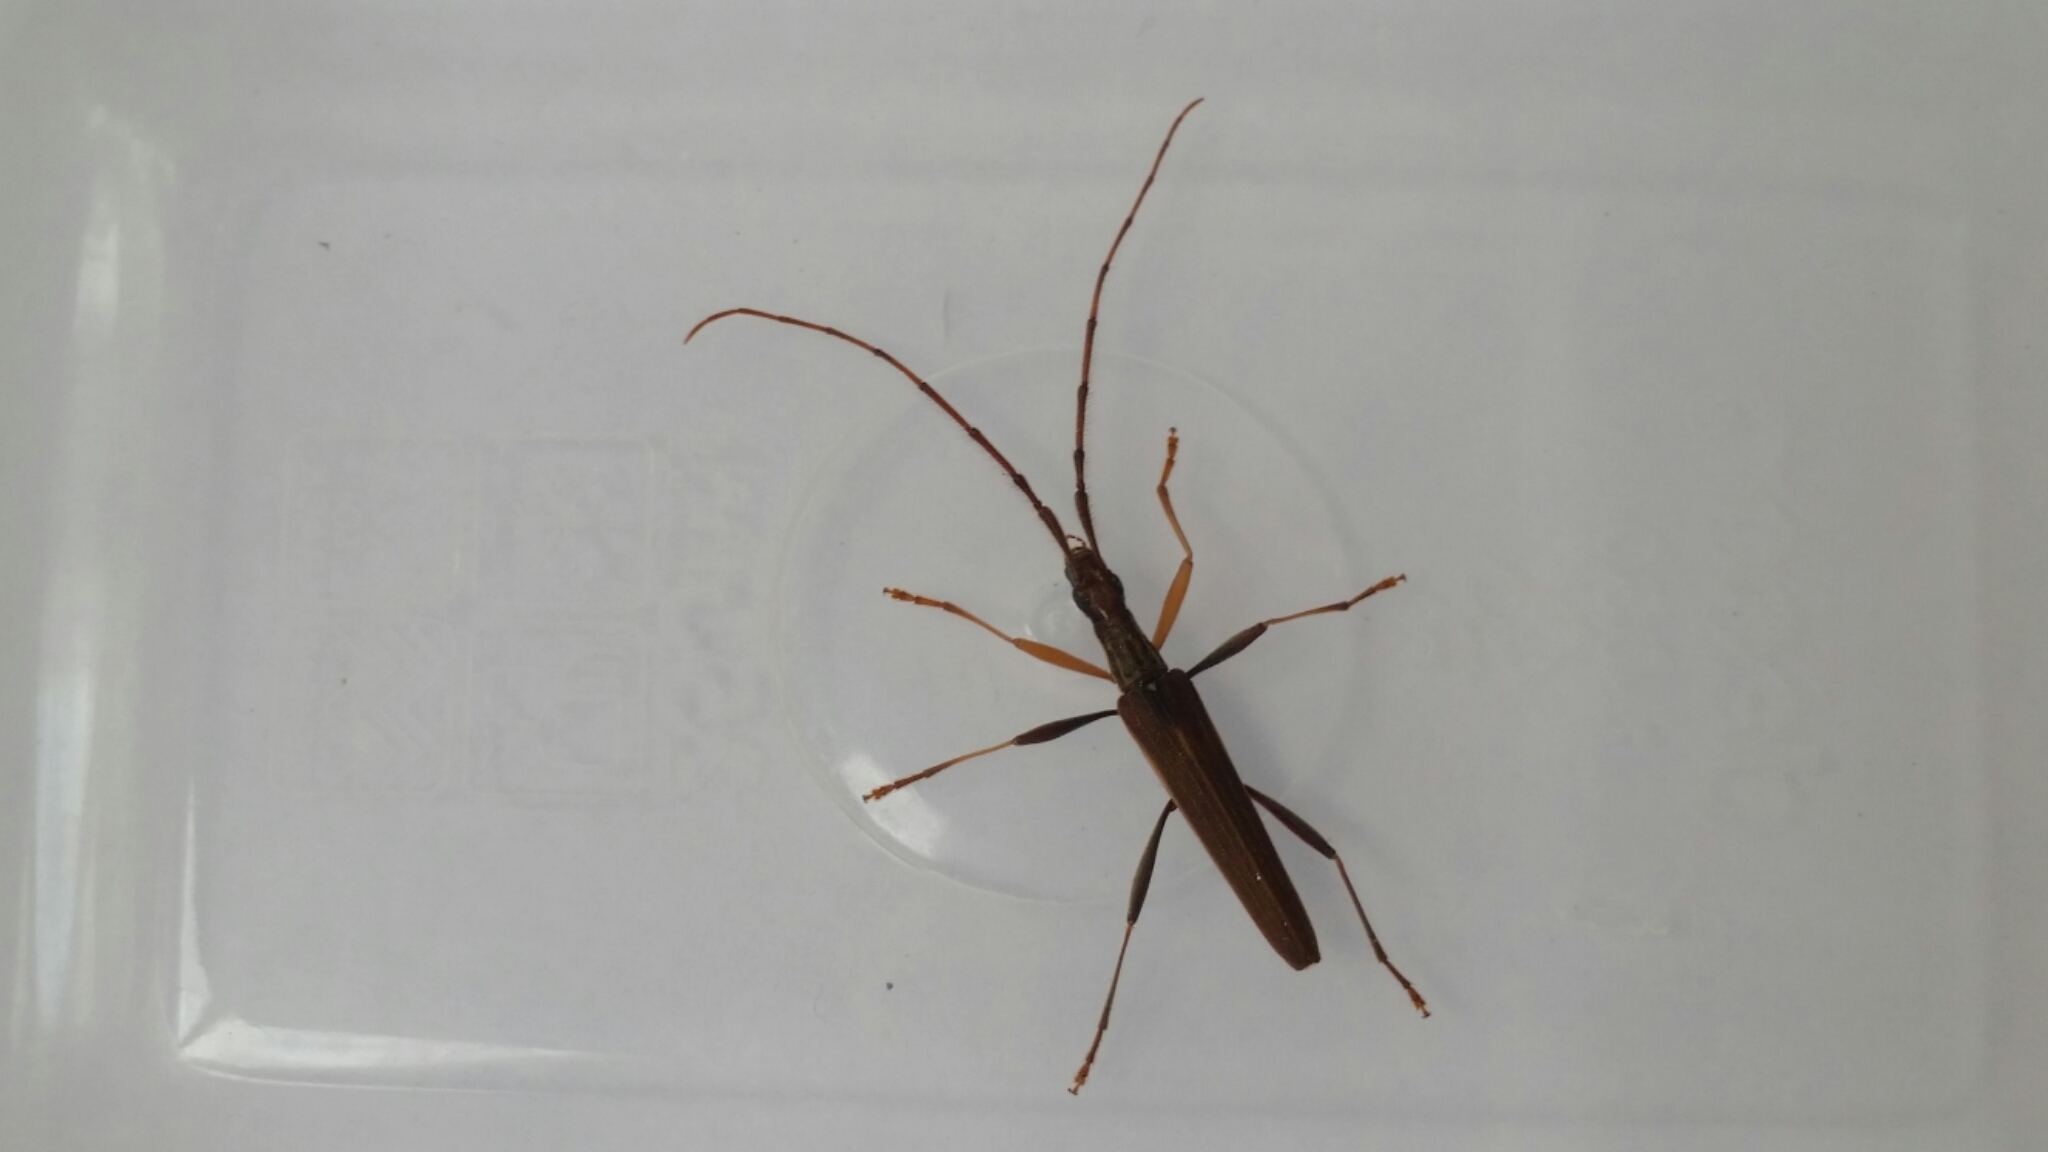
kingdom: Animalia
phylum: Arthropoda
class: Insecta
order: Coleoptera
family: Cerambycidae
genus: Stenopotes
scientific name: Stenopotes pallidus
